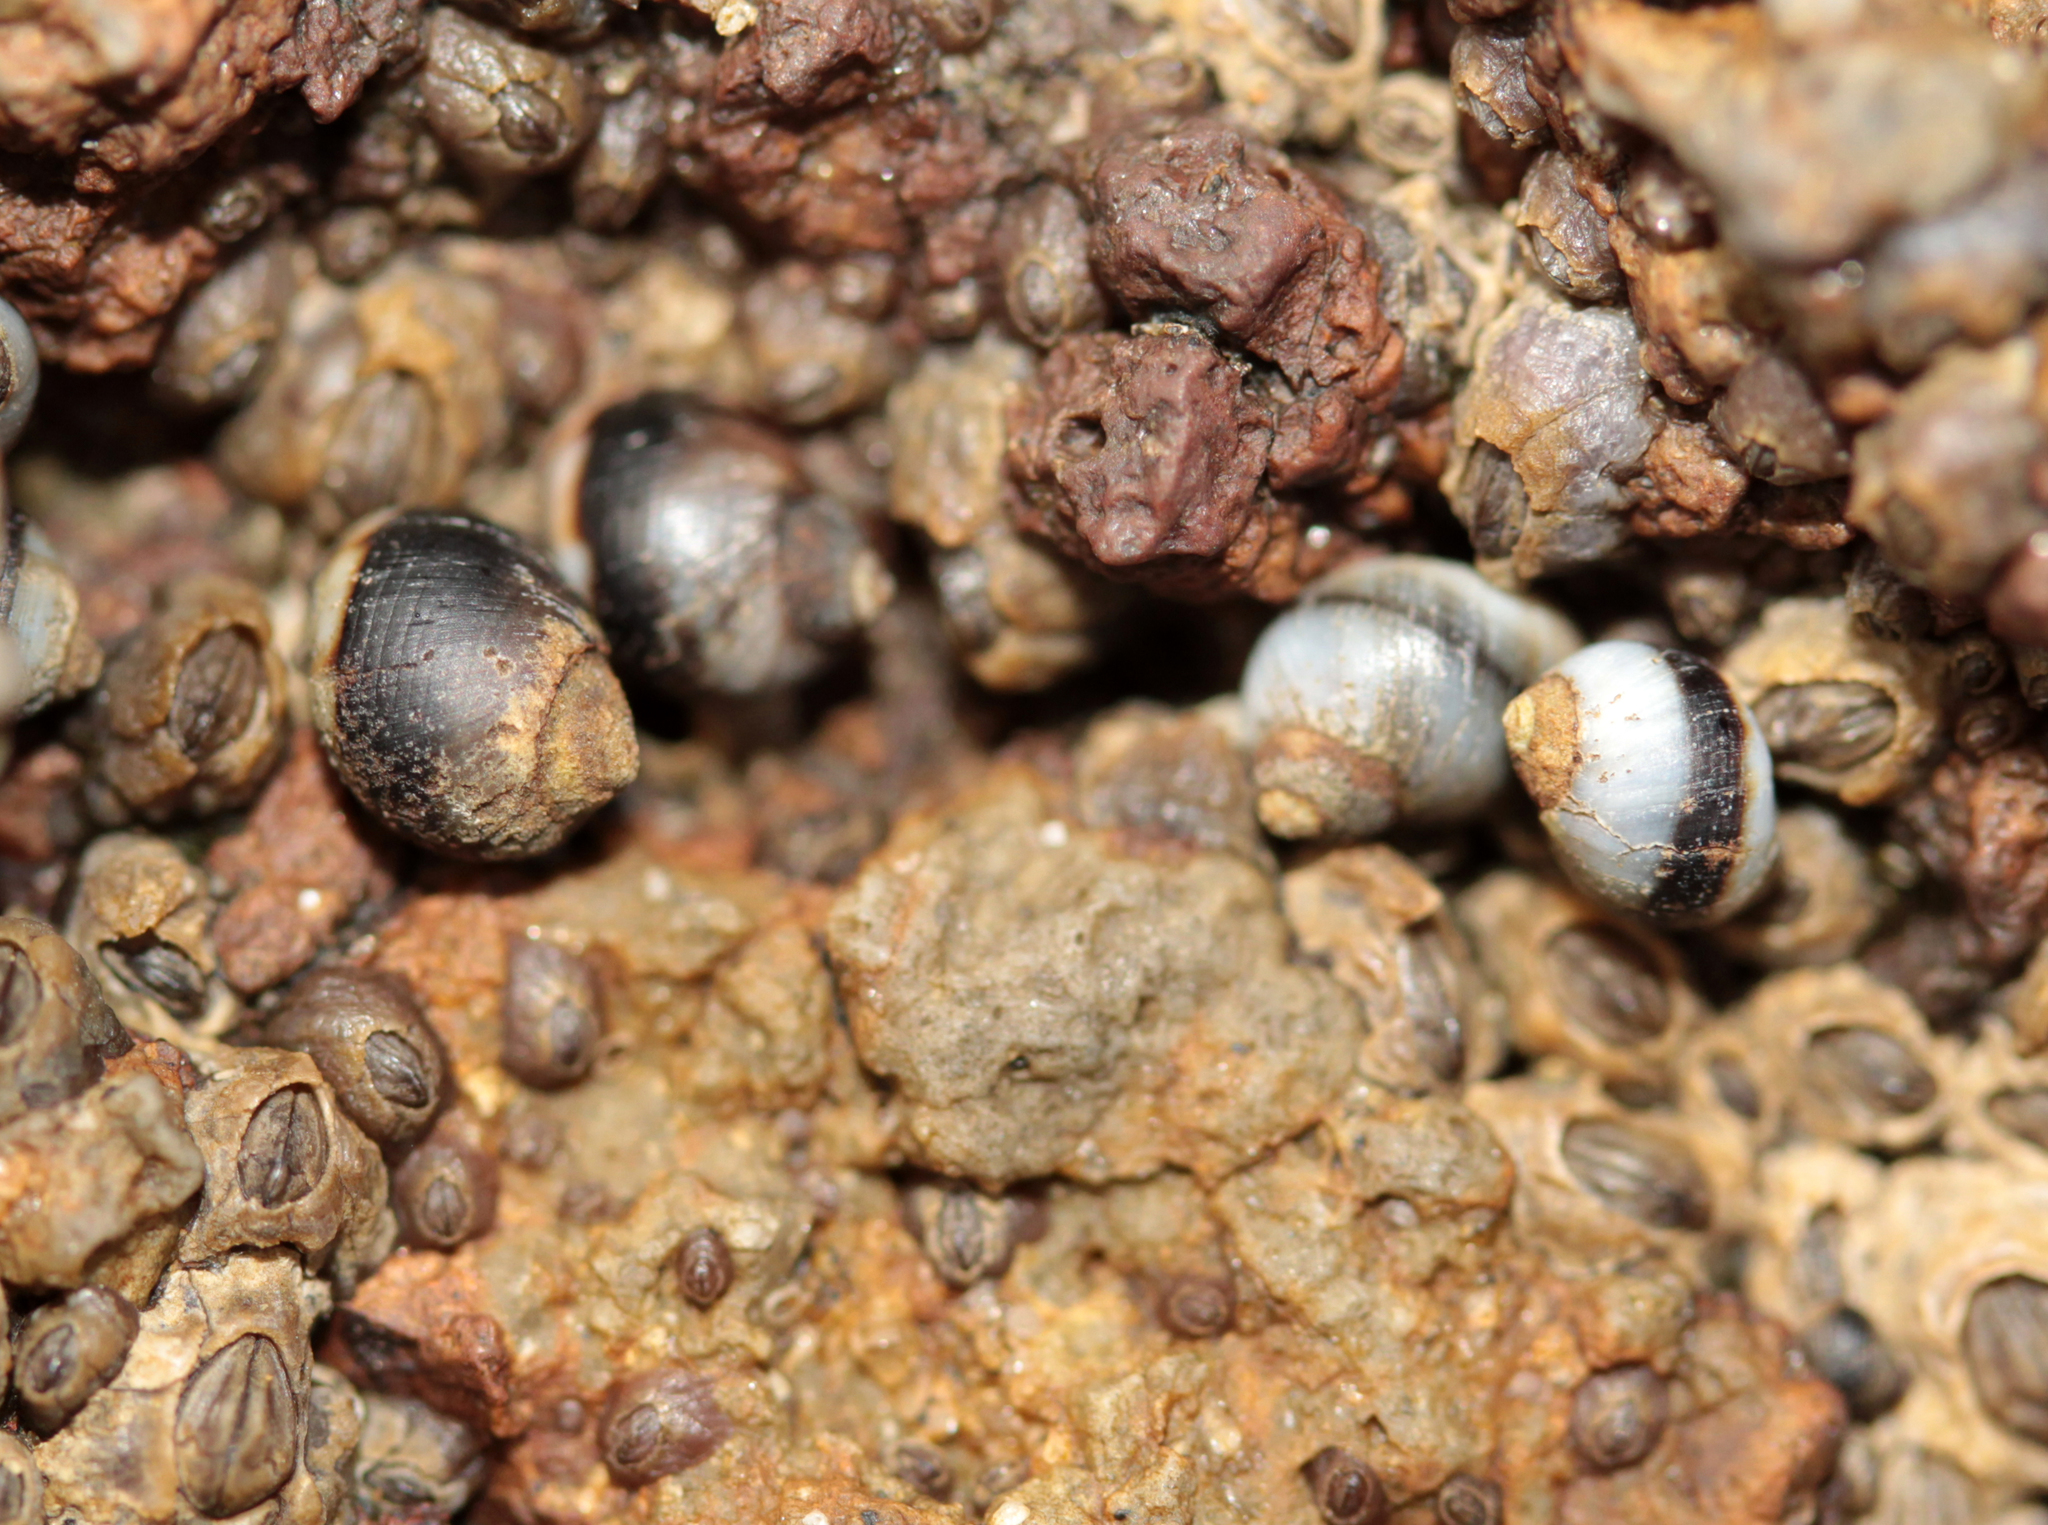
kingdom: Animalia
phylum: Mollusca
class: Gastropoda
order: Littorinimorpha
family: Littorinidae
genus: Littorina
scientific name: Littorina keenae
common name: Eroded periwinkle
